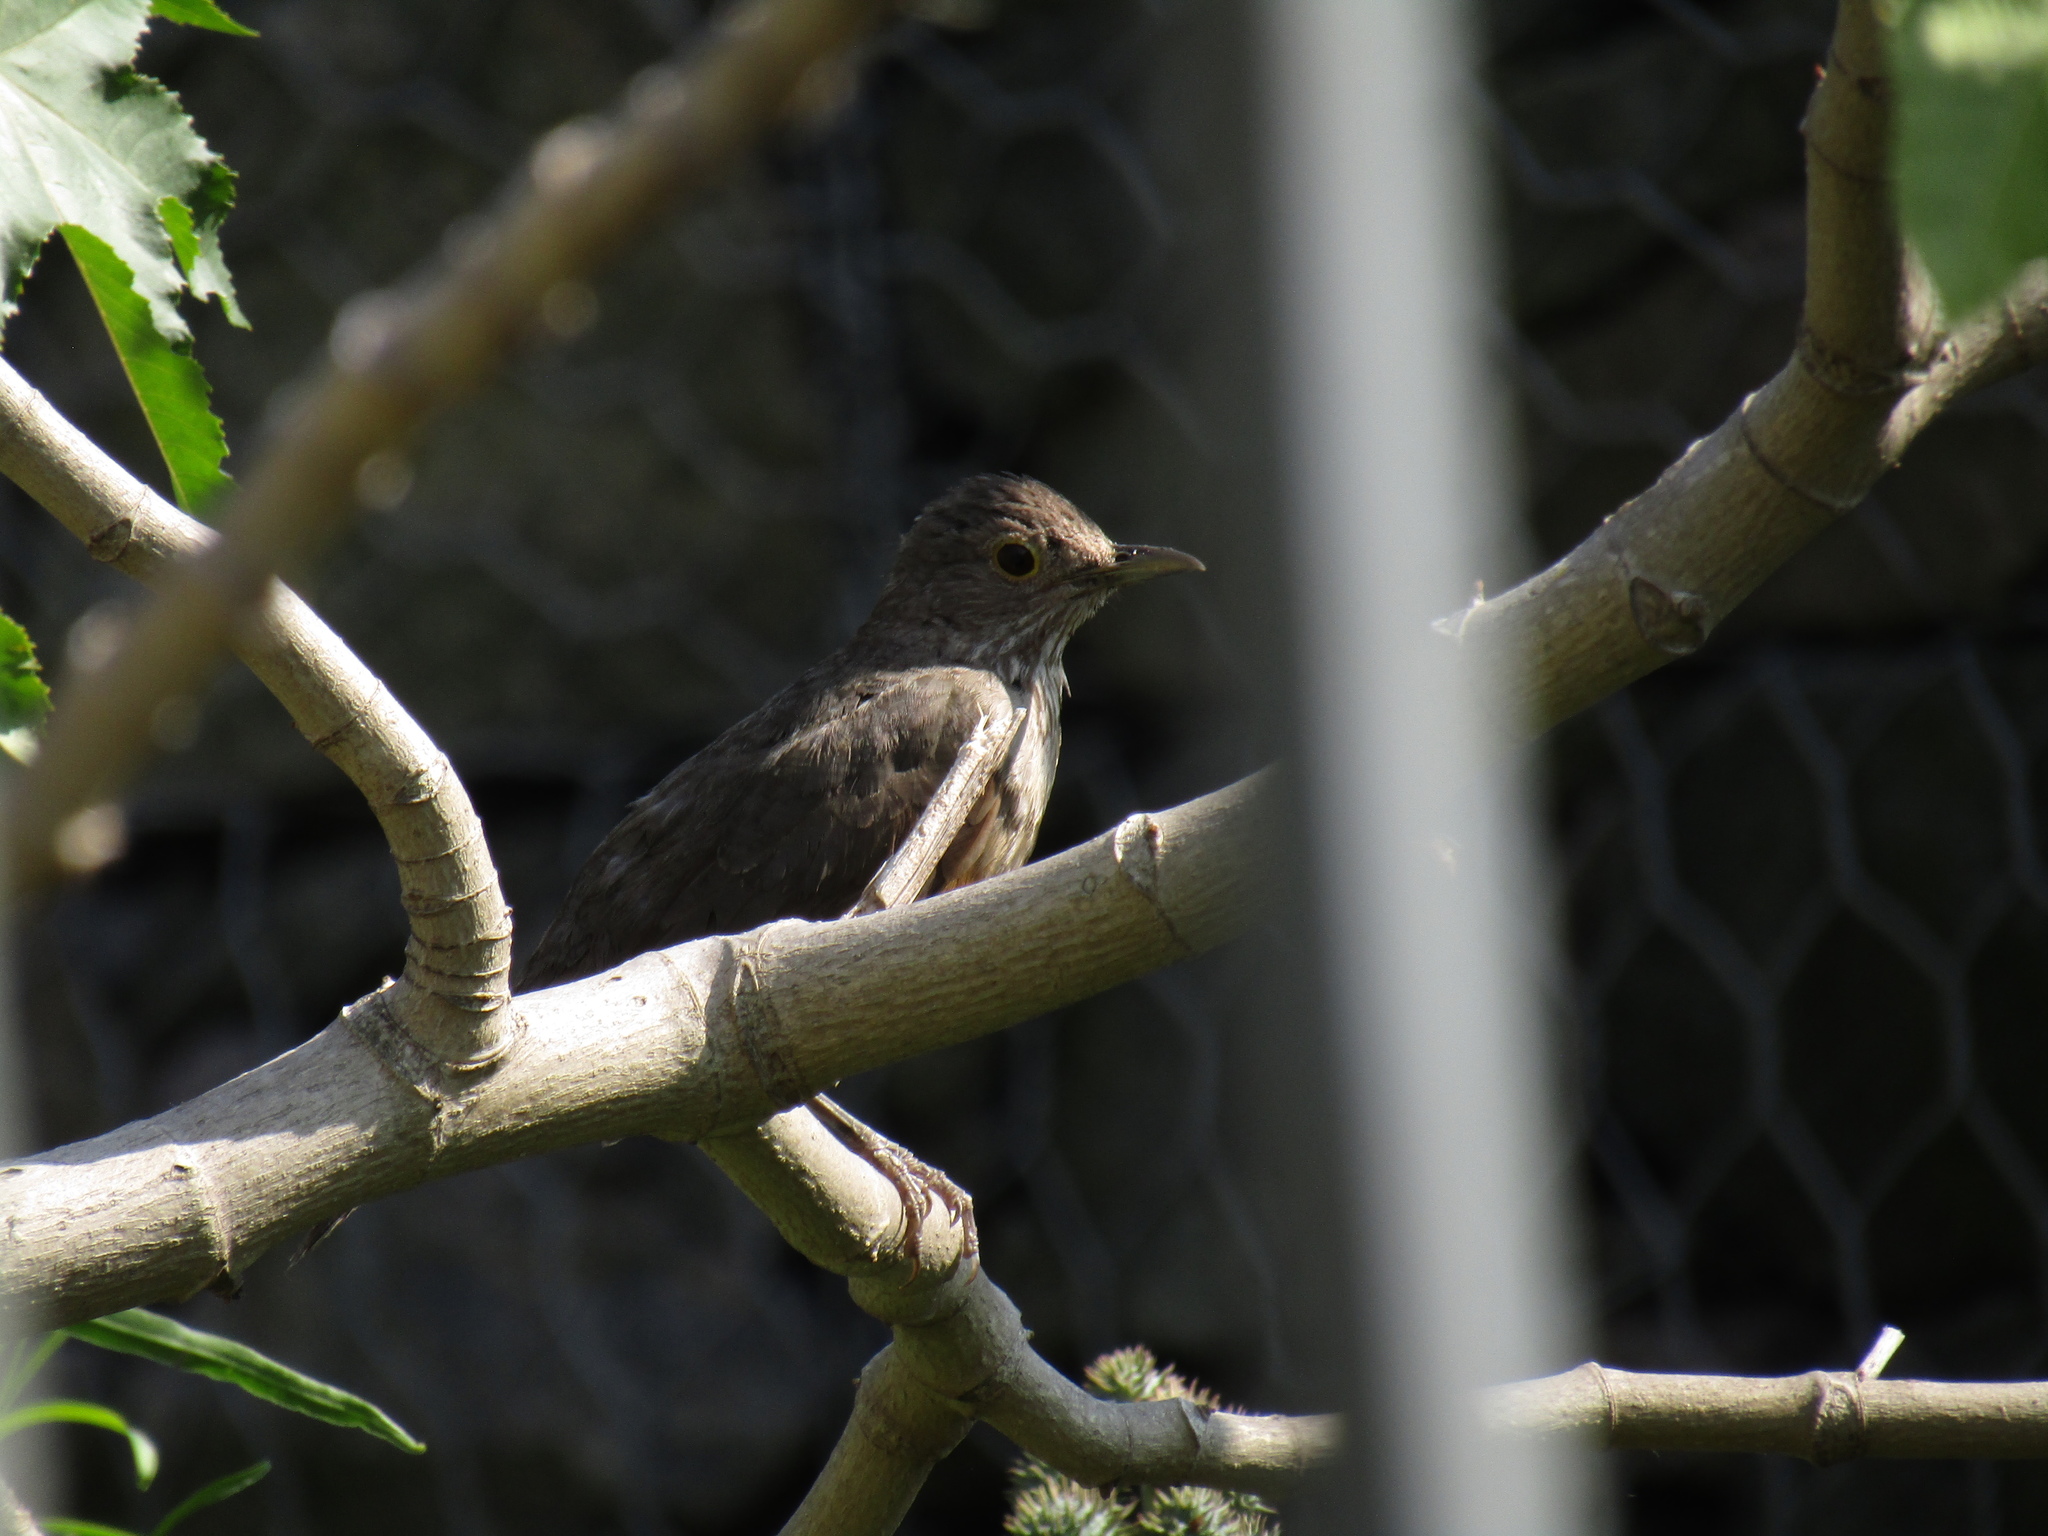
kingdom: Animalia
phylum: Chordata
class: Aves
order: Passeriformes
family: Turdidae
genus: Turdus
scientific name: Turdus rufiventris
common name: Rufous-bellied thrush
